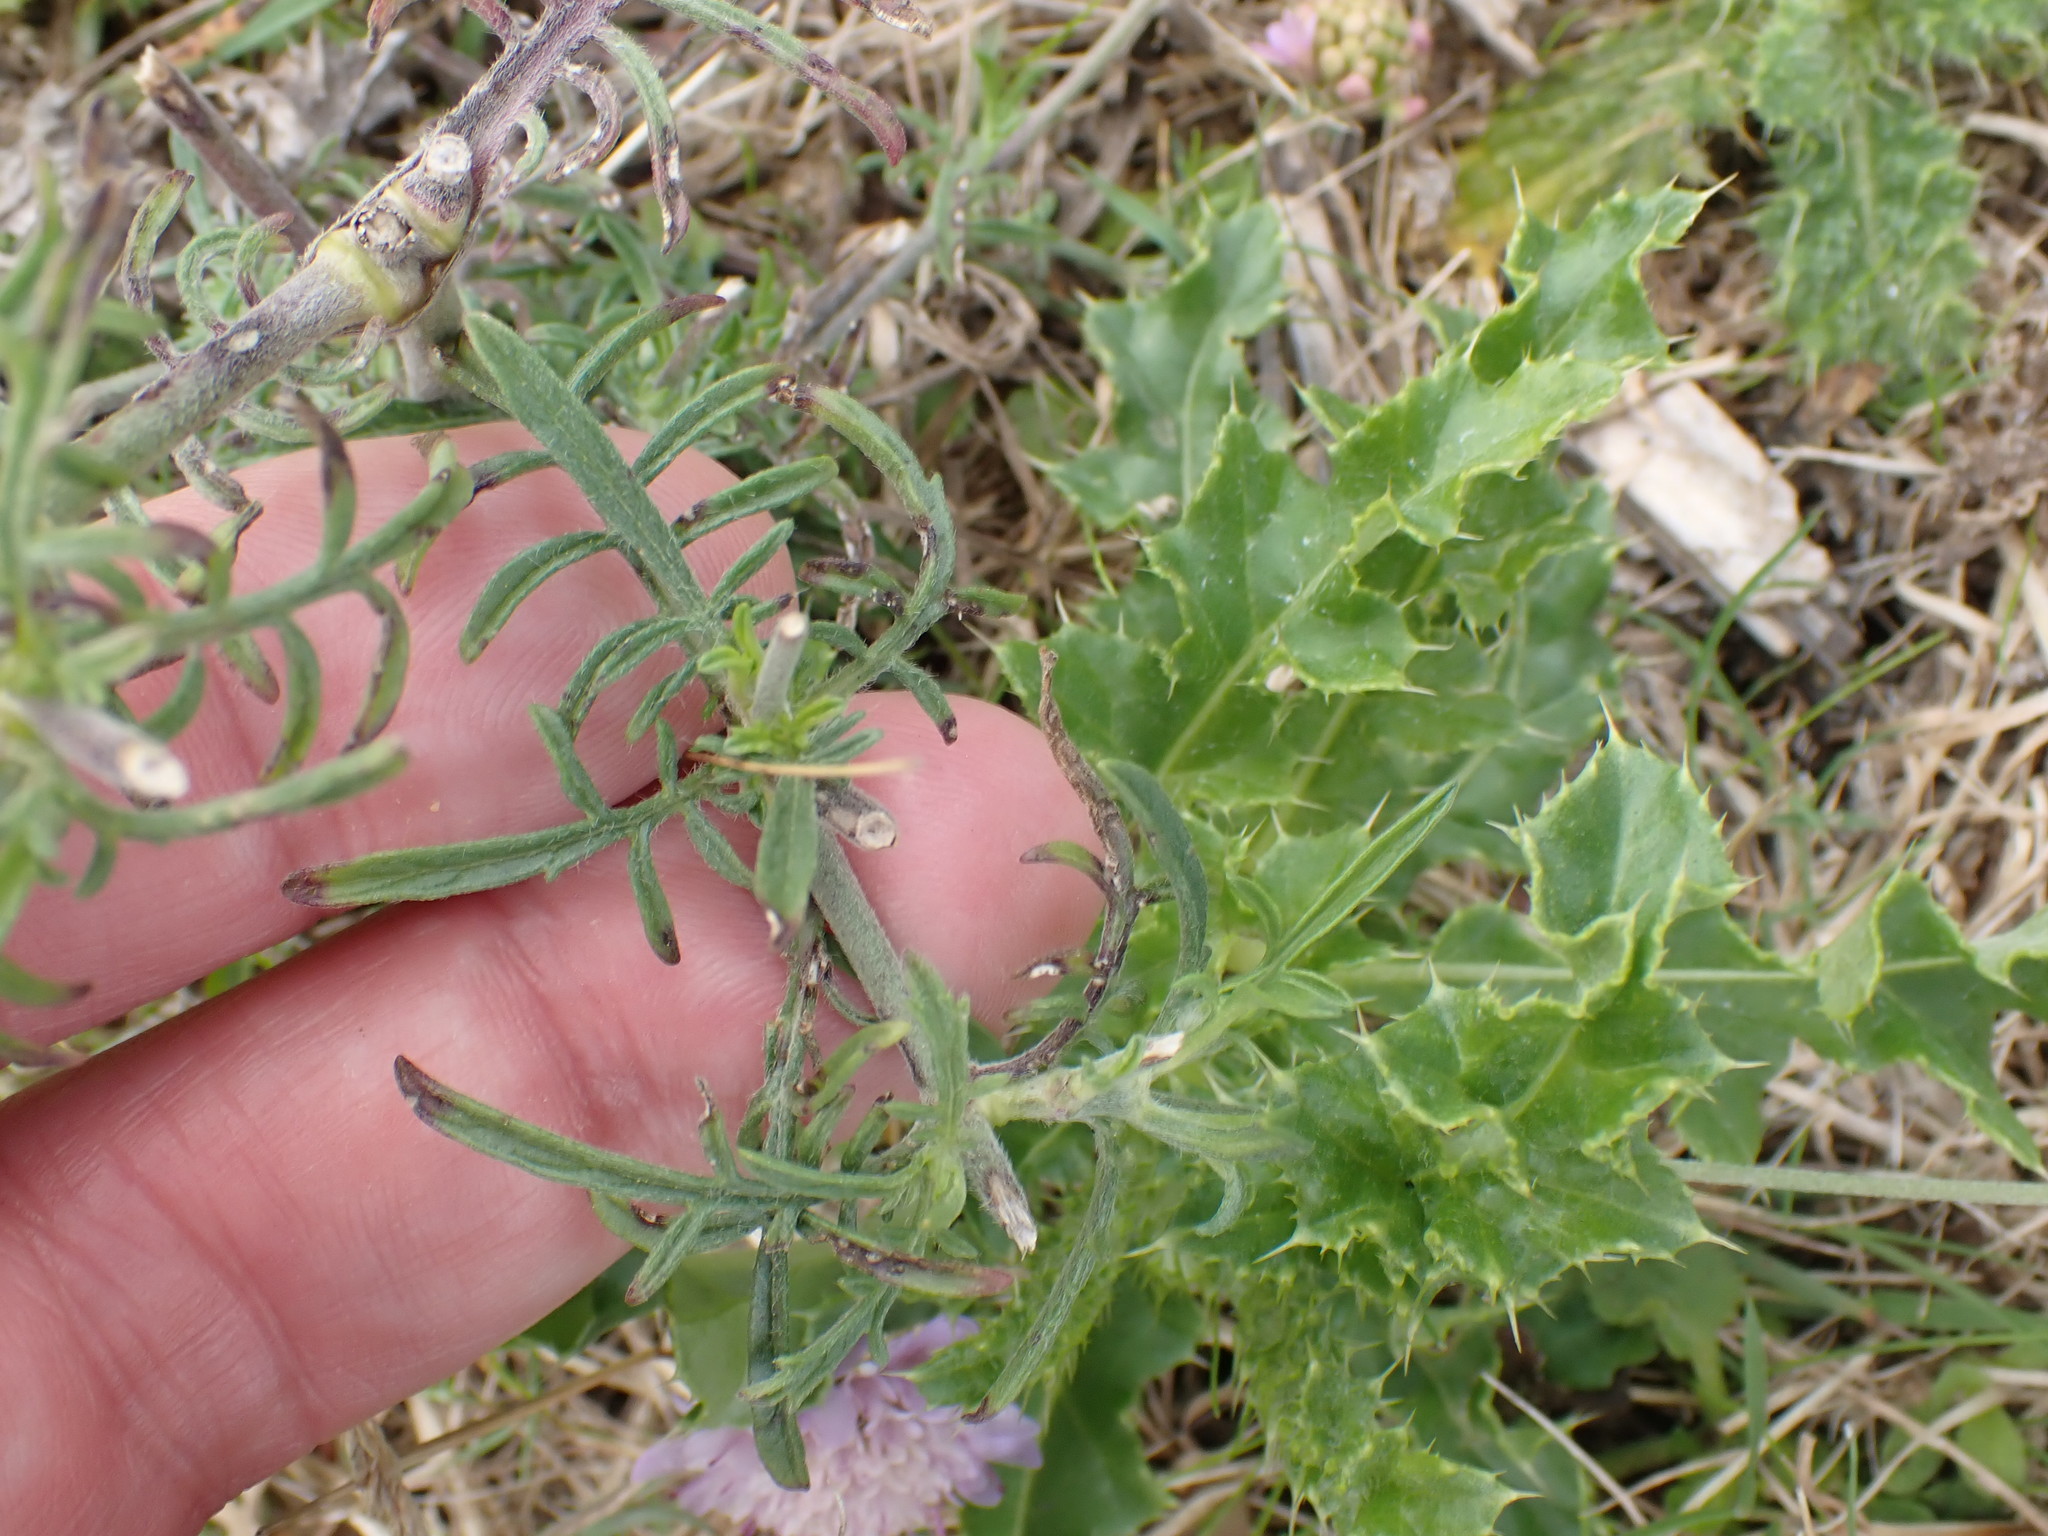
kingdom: Plantae
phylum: Tracheophyta
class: Magnoliopsida
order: Dipsacales
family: Caprifoliaceae
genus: Scabiosa
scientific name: Scabiosa columbaria
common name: Small scabious
